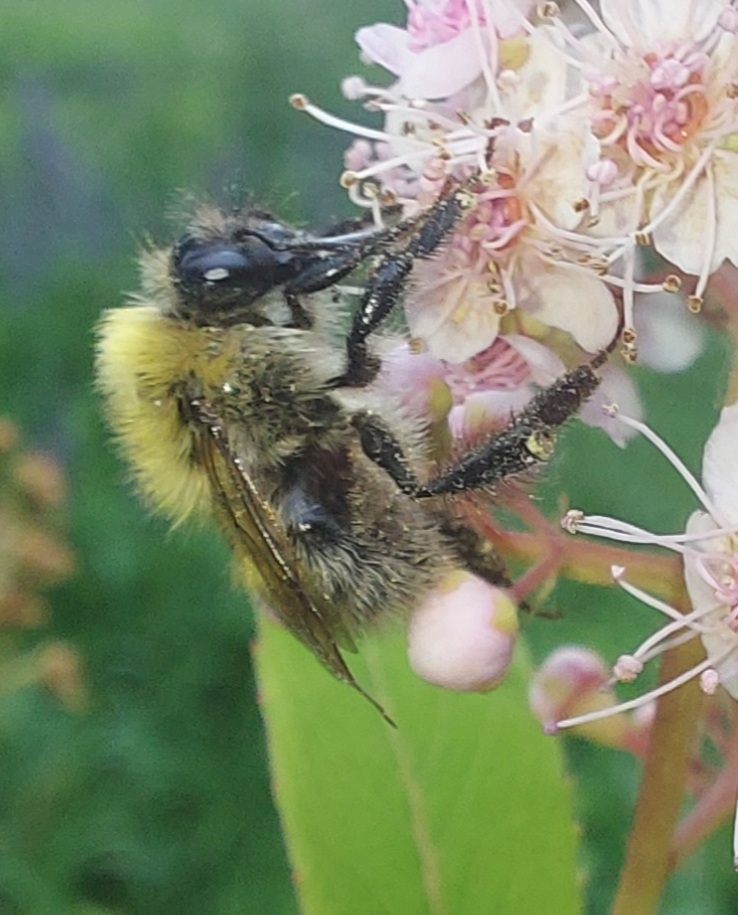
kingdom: Animalia
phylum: Arthropoda
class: Insecta
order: Hymenoptera
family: Apidae
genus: Bombus
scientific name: Bombus
